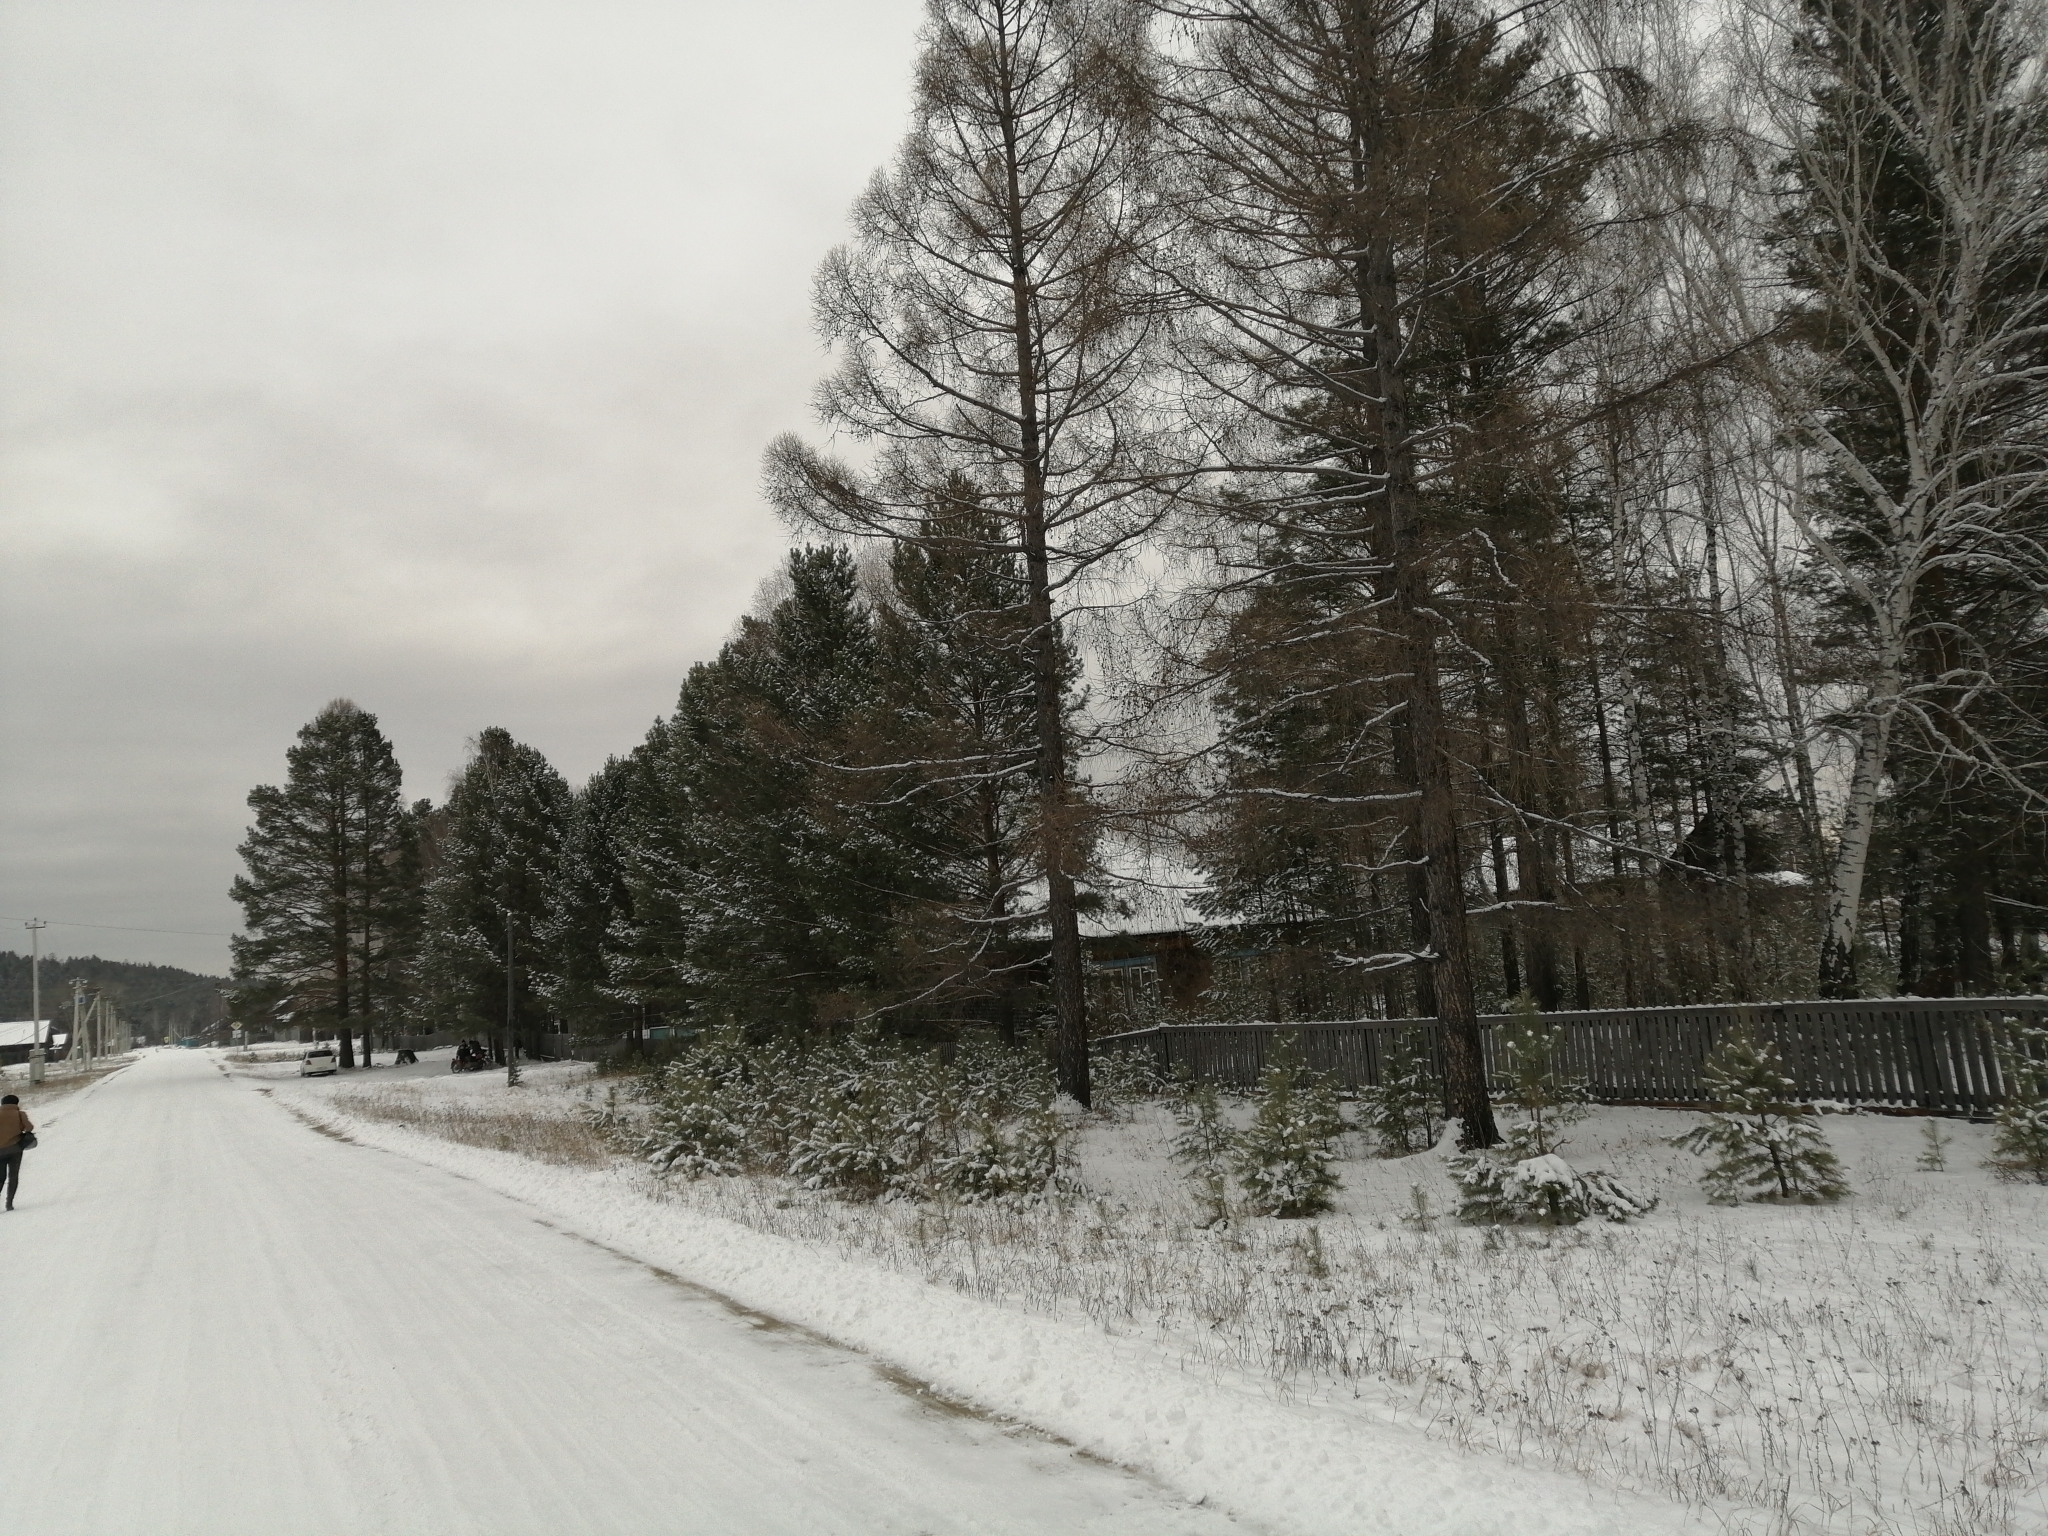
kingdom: Plantae
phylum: Tracheophyta
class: Pinopsida
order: Pinales
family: Pinaceae
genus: Larix
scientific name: Larix sibirica
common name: Siberian larch
